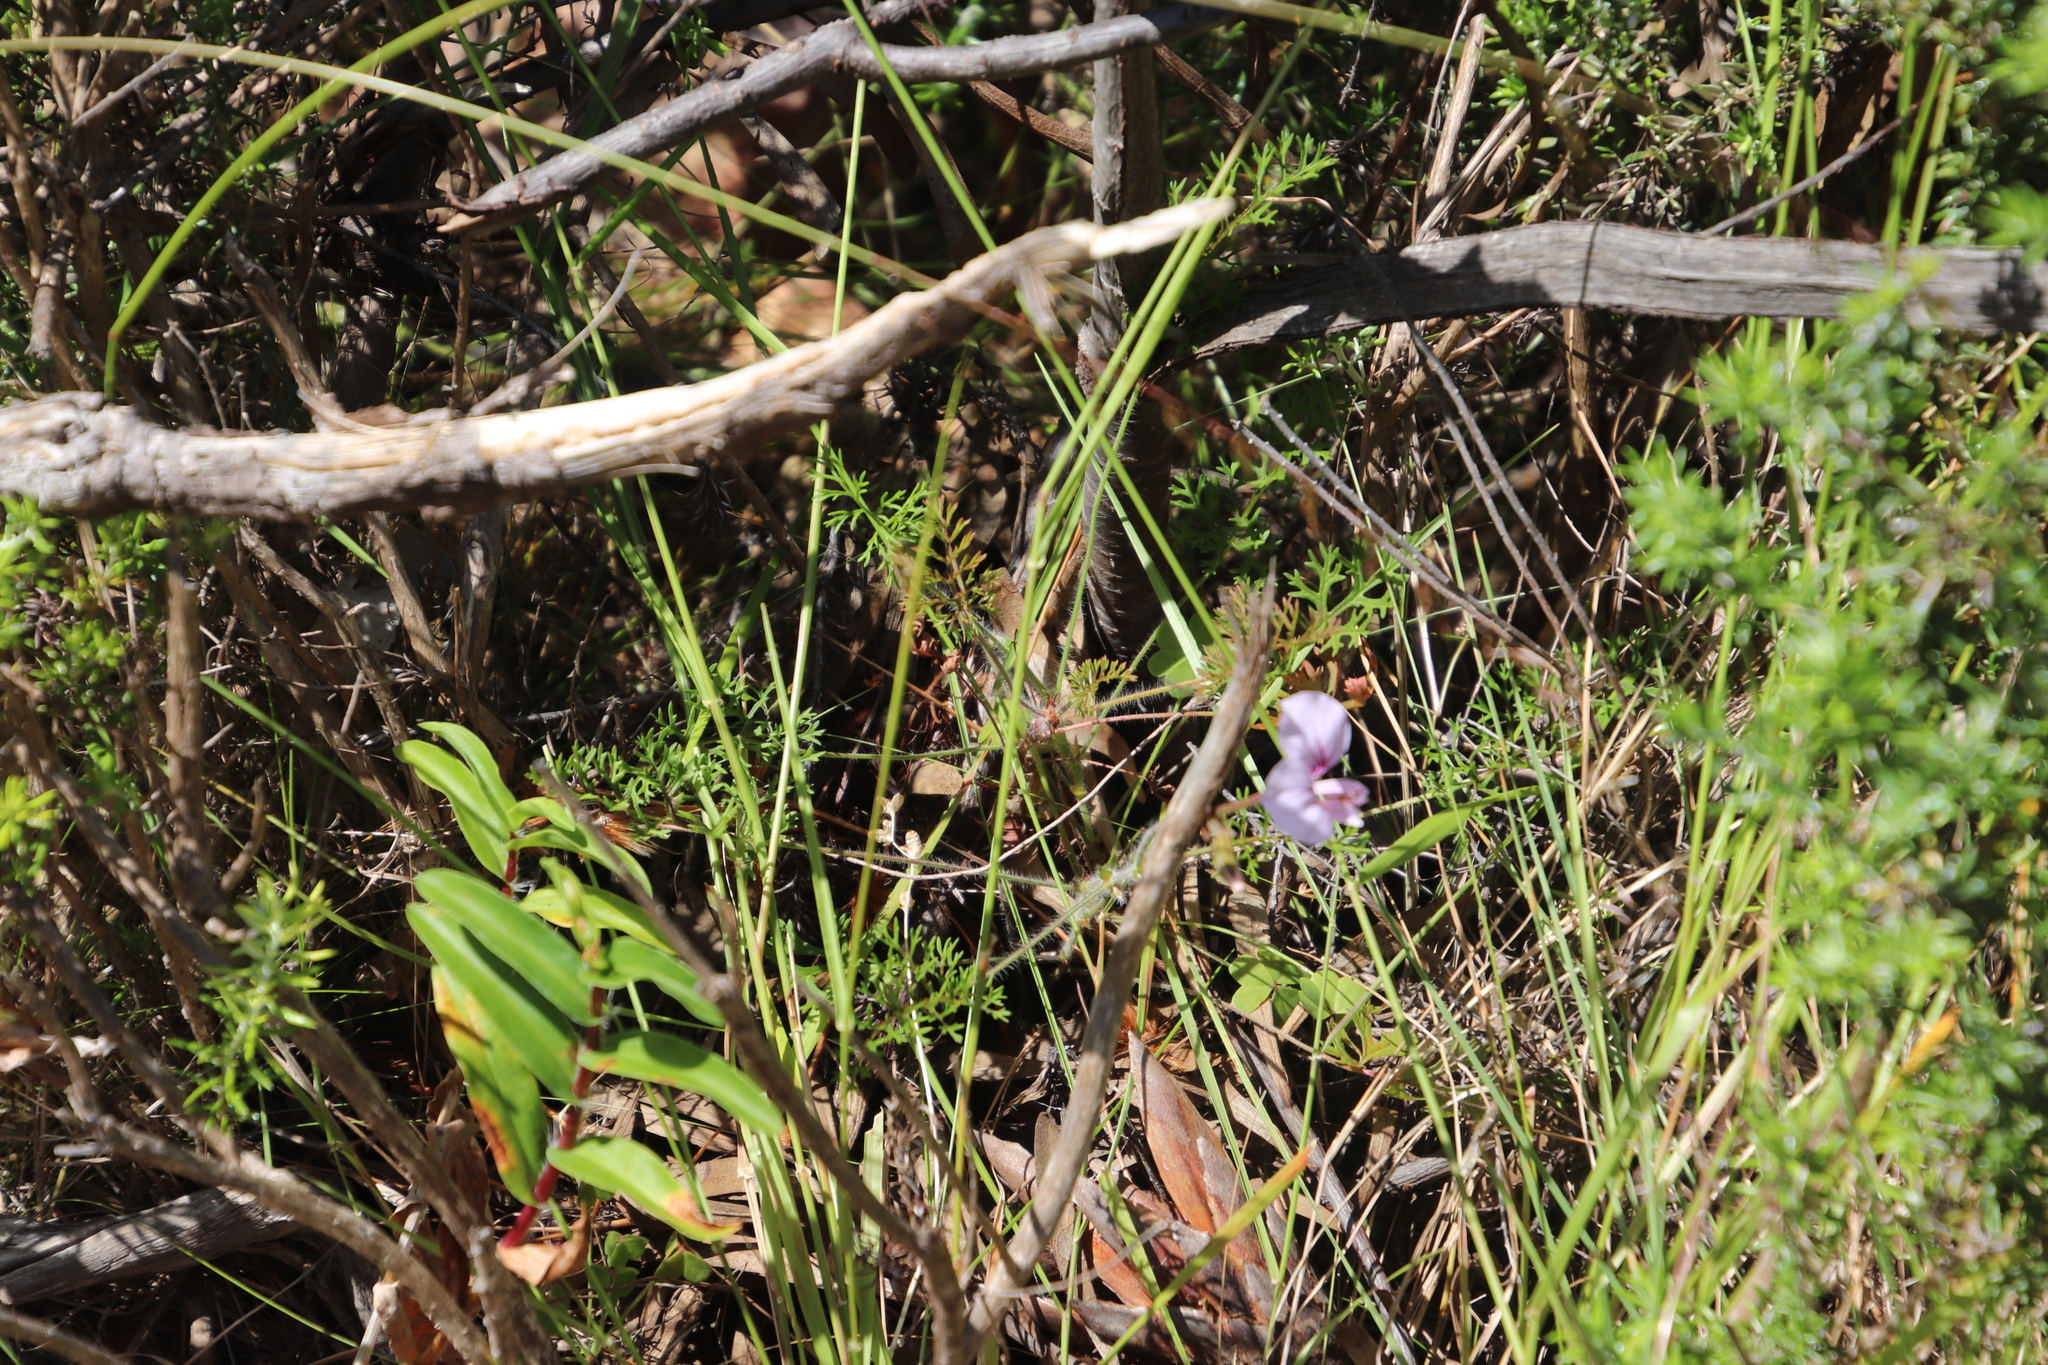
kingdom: Plantae
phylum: Tracheophyta
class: Magnoliopsida
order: Geraniales
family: Geraniaceae
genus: Pelargonium
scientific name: Pelargonium myrrhifolium
